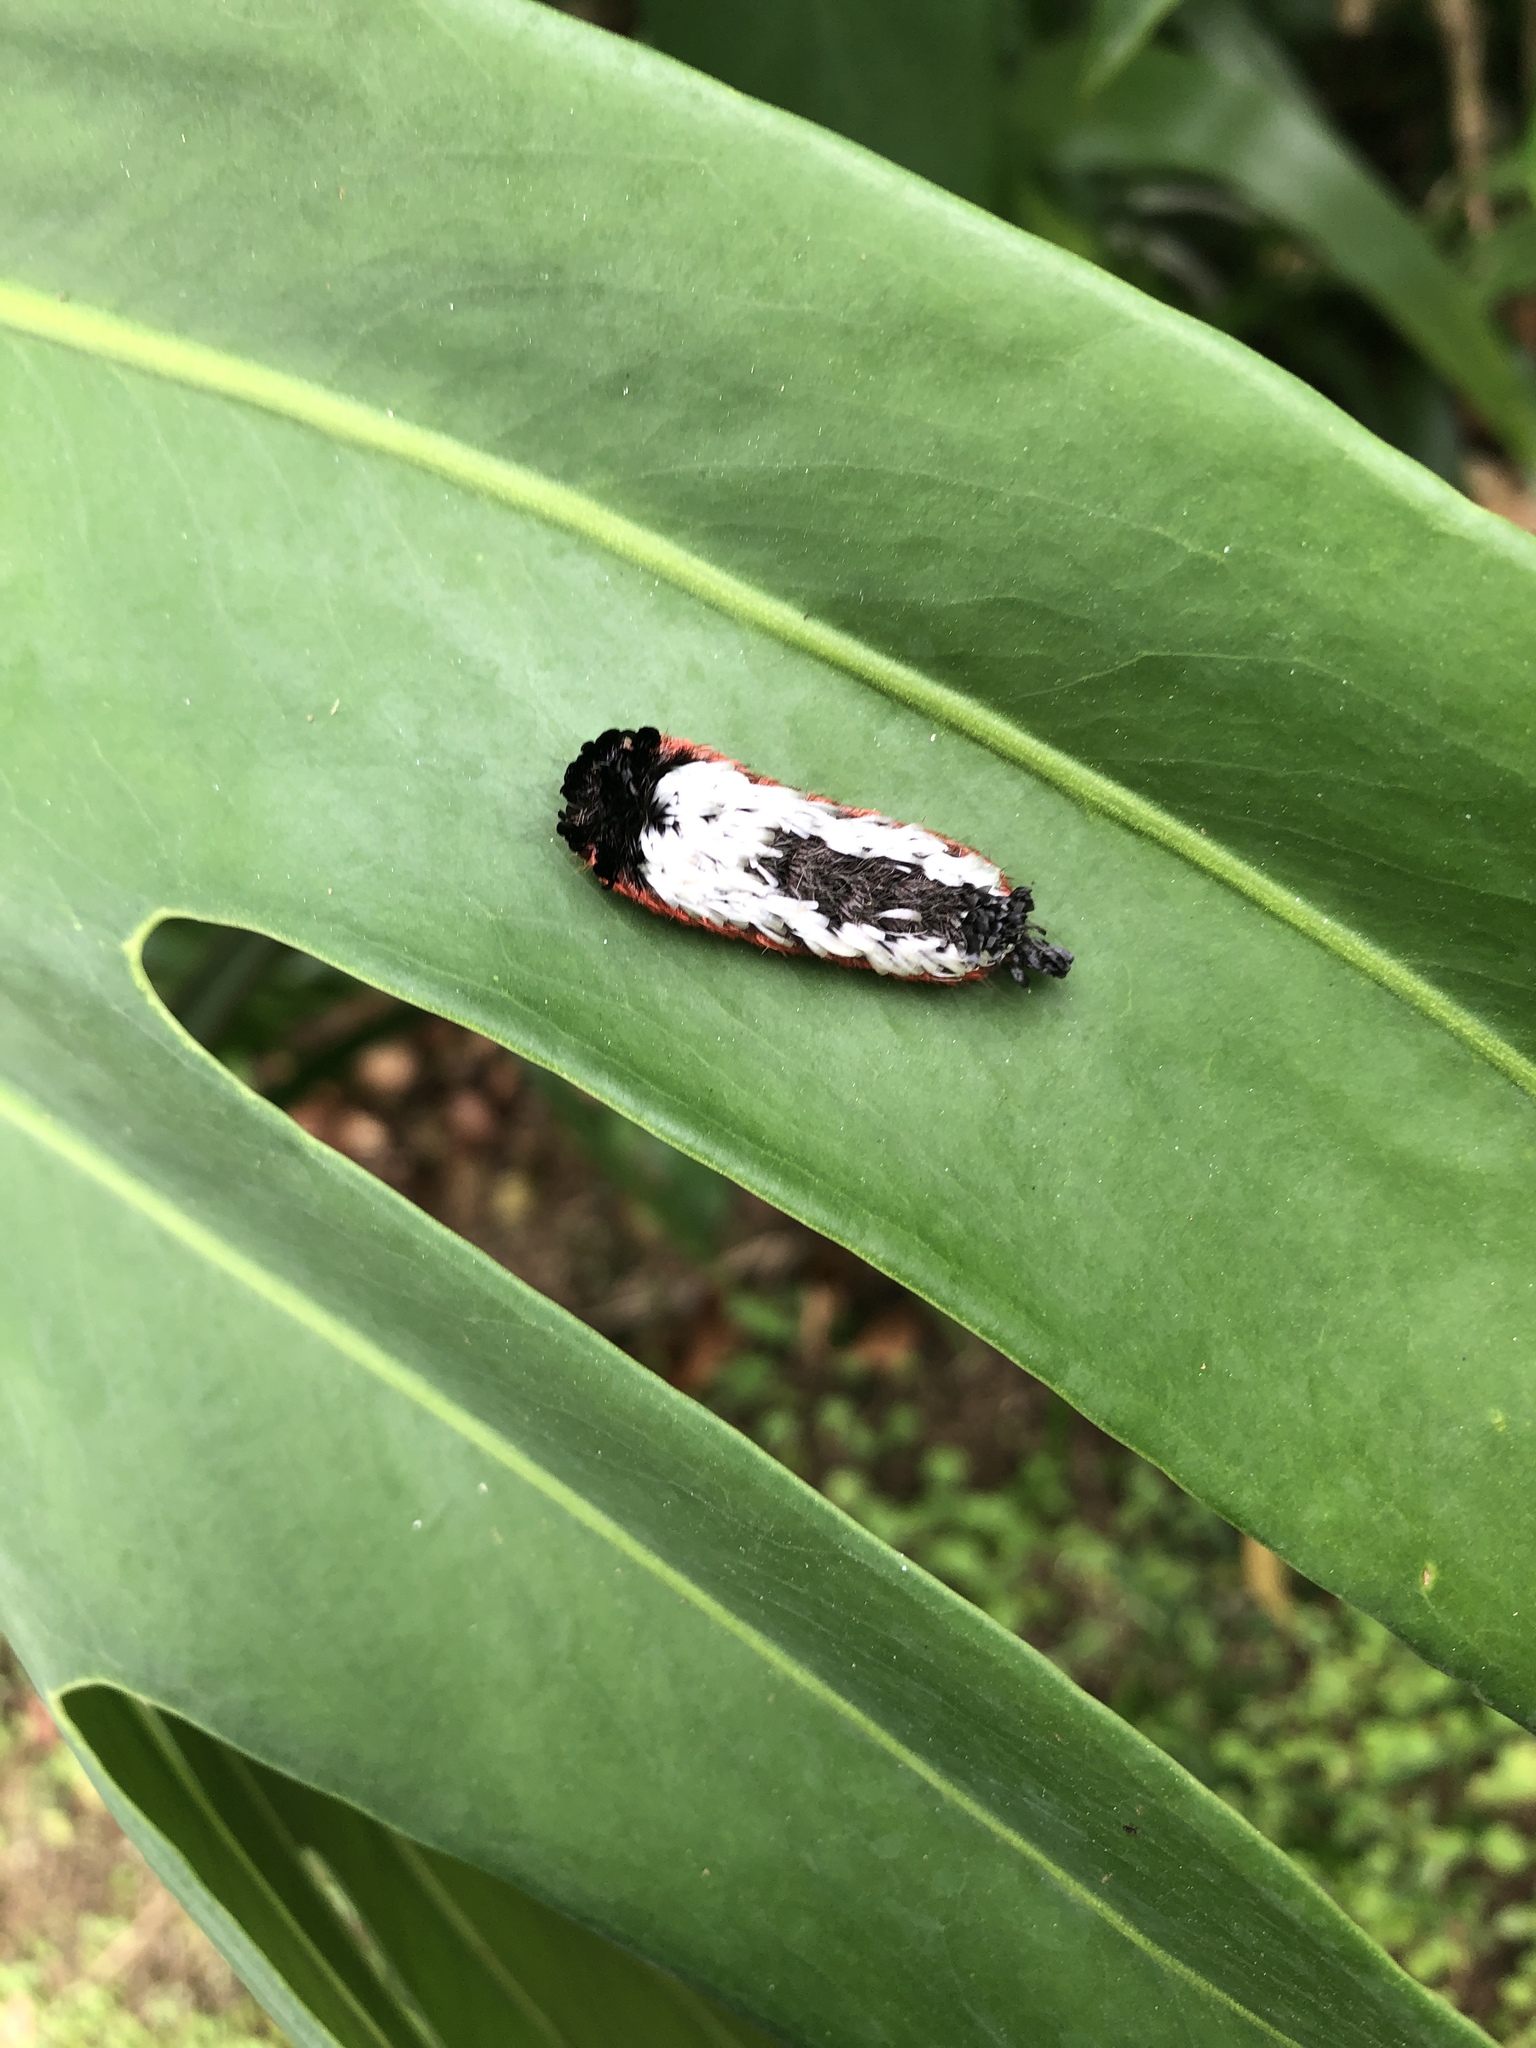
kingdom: Animalia
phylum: Arthropoda
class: Insecta
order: Lepidoptera
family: Bombycidae
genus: Prothysana
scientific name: Prothysana
